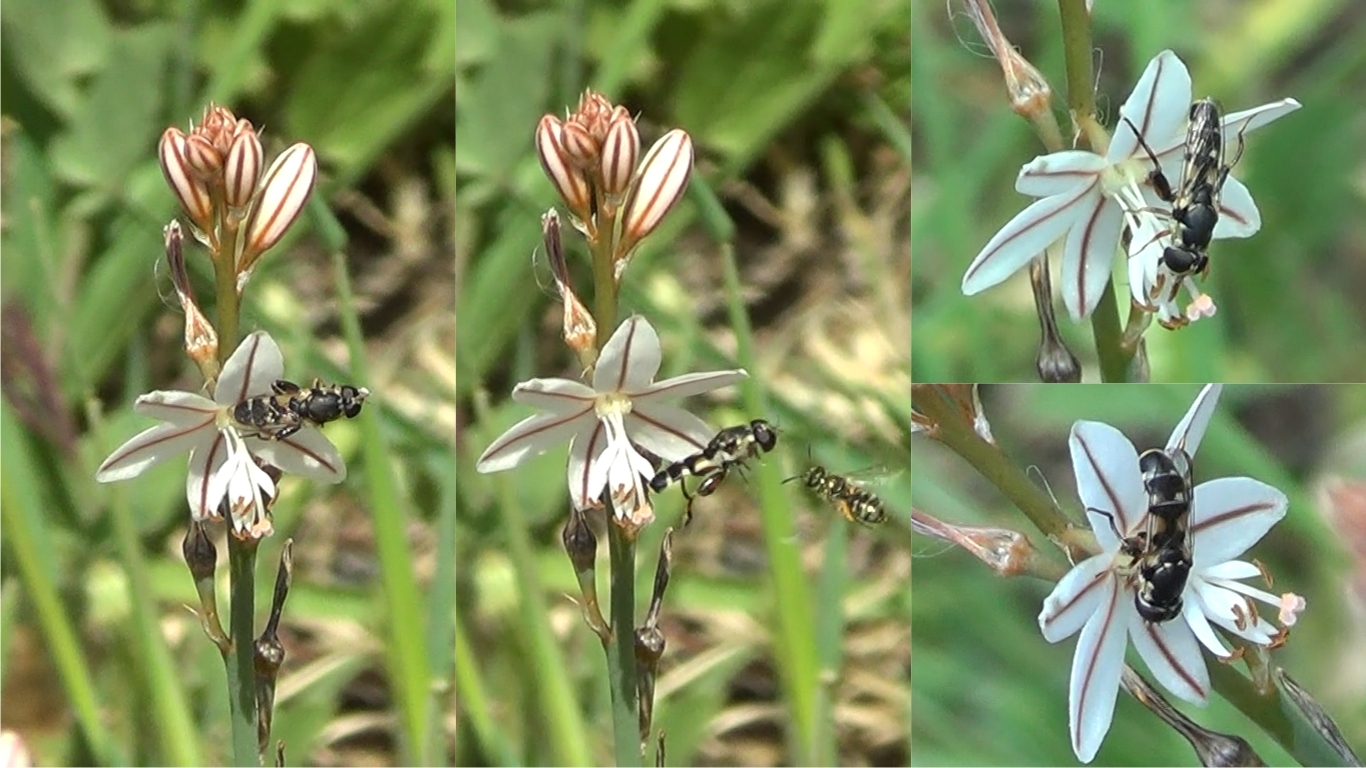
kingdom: Animalia
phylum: Arthropoda
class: Insecta
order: Diptera
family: Syrphidae
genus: Syritta
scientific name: Syritta pipiens
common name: Hover fly
